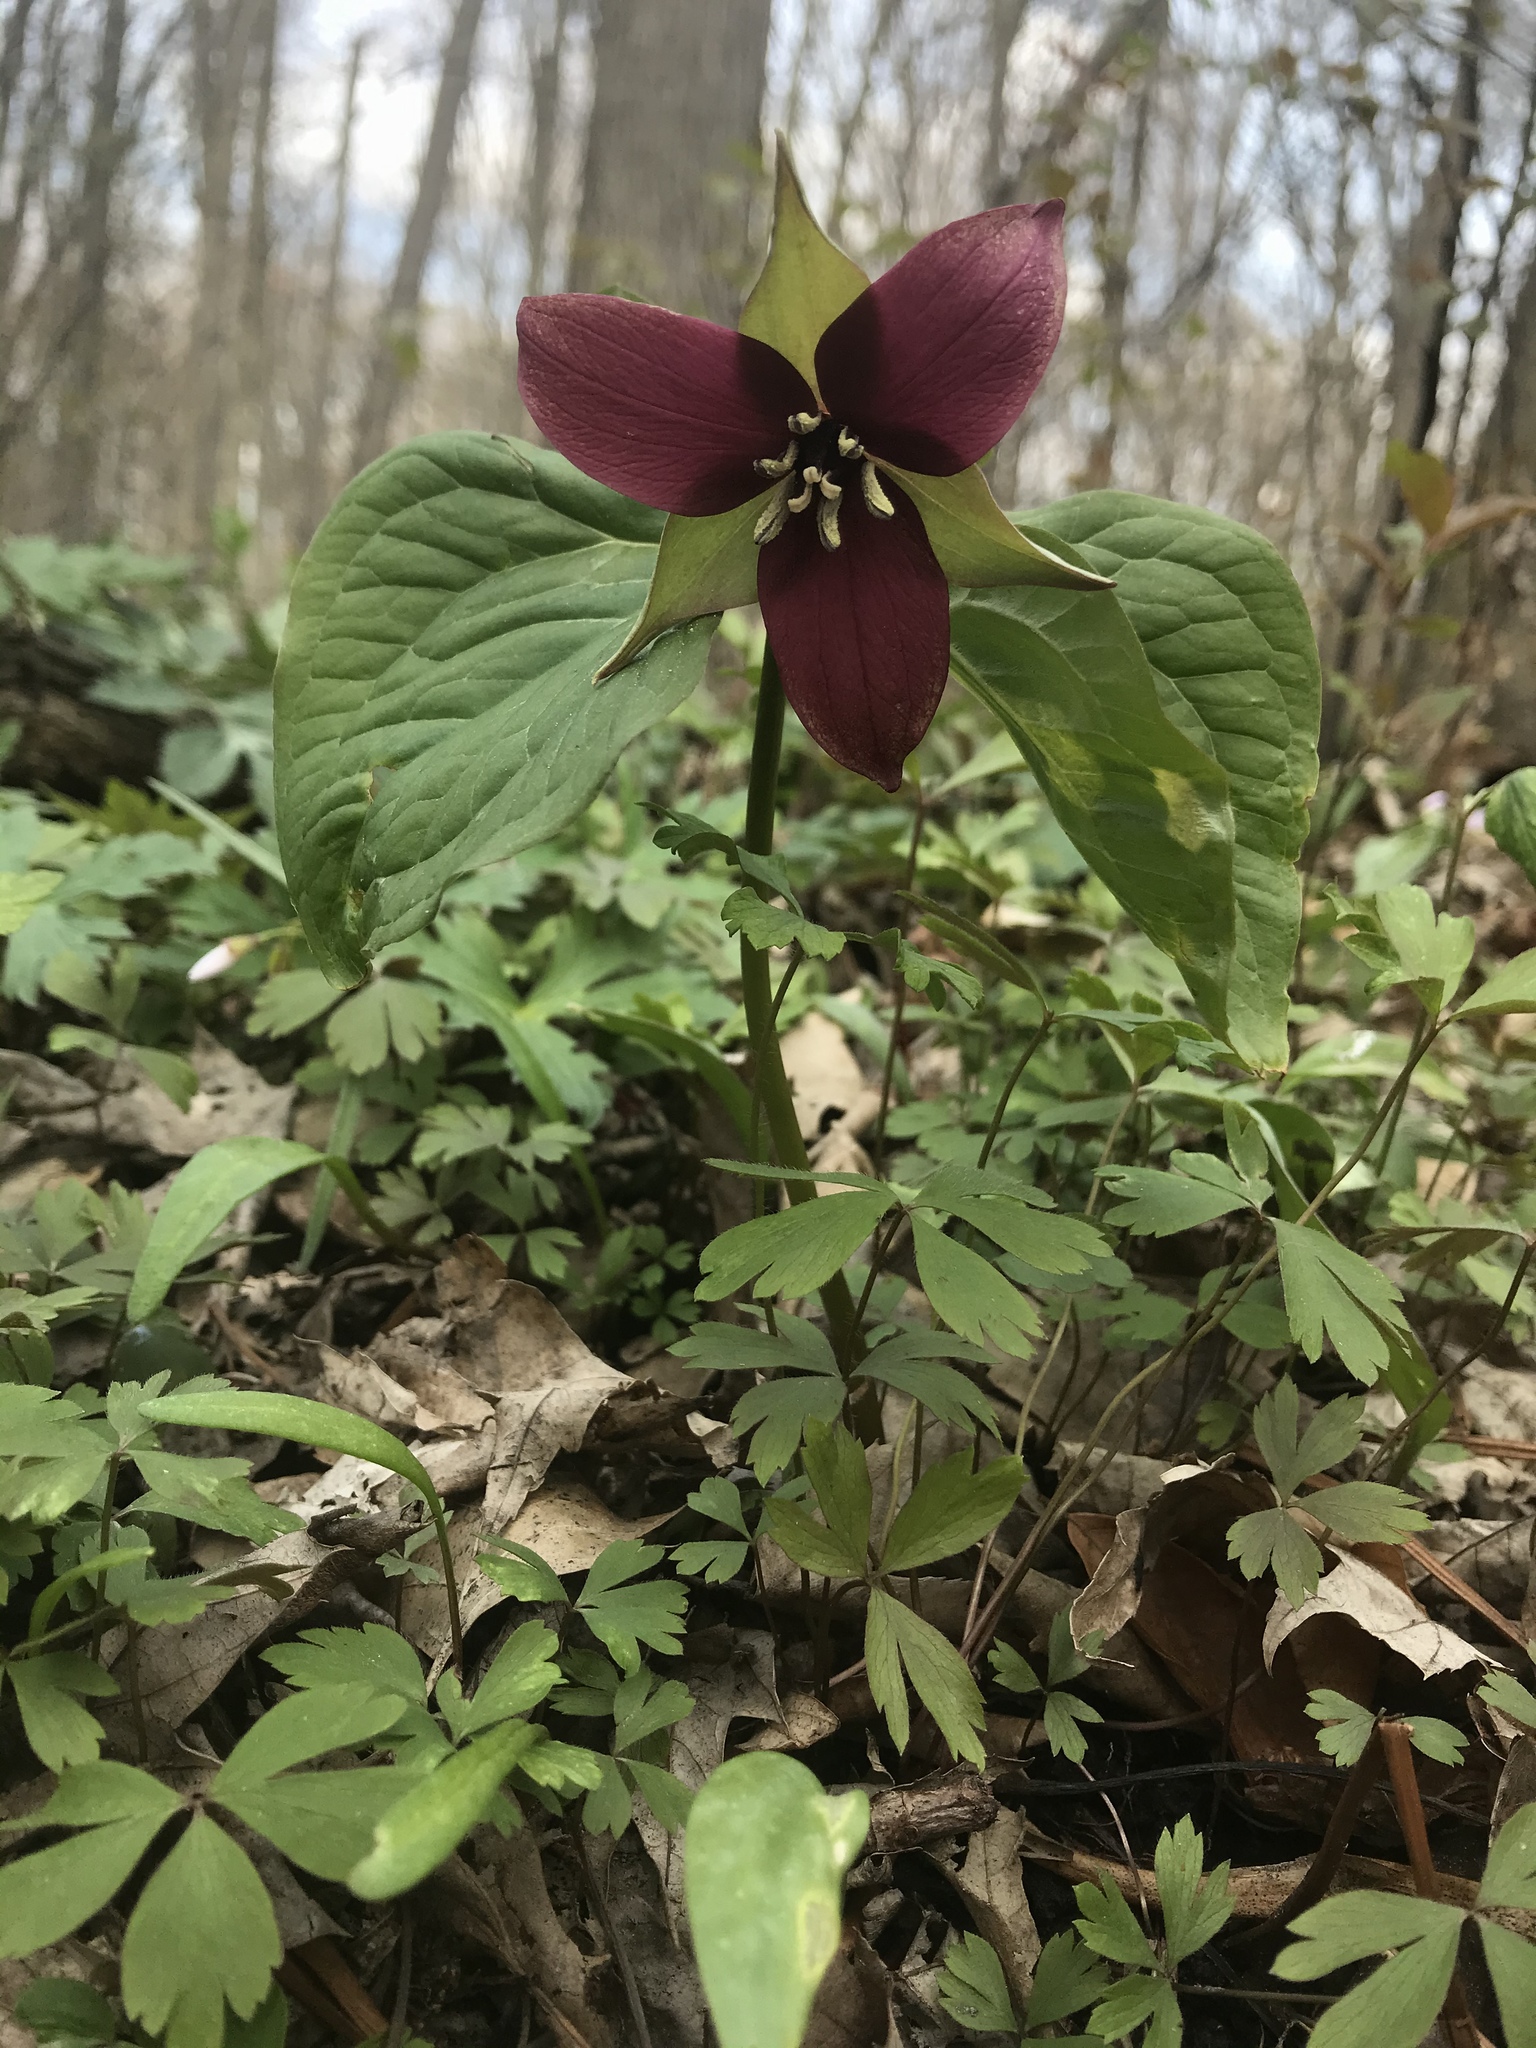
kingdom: Plantae
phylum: Tracheophyta
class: Liliopsida
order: Liliales
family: Melanthiaceae
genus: Trillium
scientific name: Trillium erectum
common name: Purple trillium
